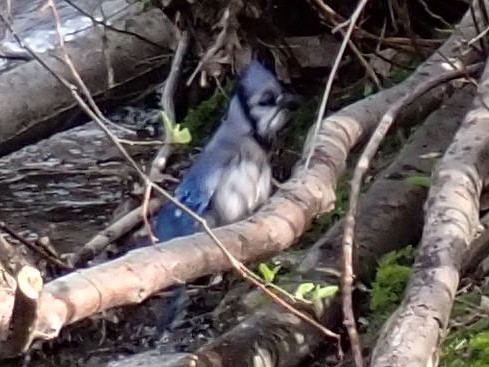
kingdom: Animalia
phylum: Chordata
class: Aves
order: Passeriformes
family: Corvidae
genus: Cyanocitta
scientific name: Cyanocitta cristata
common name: Blue jay
